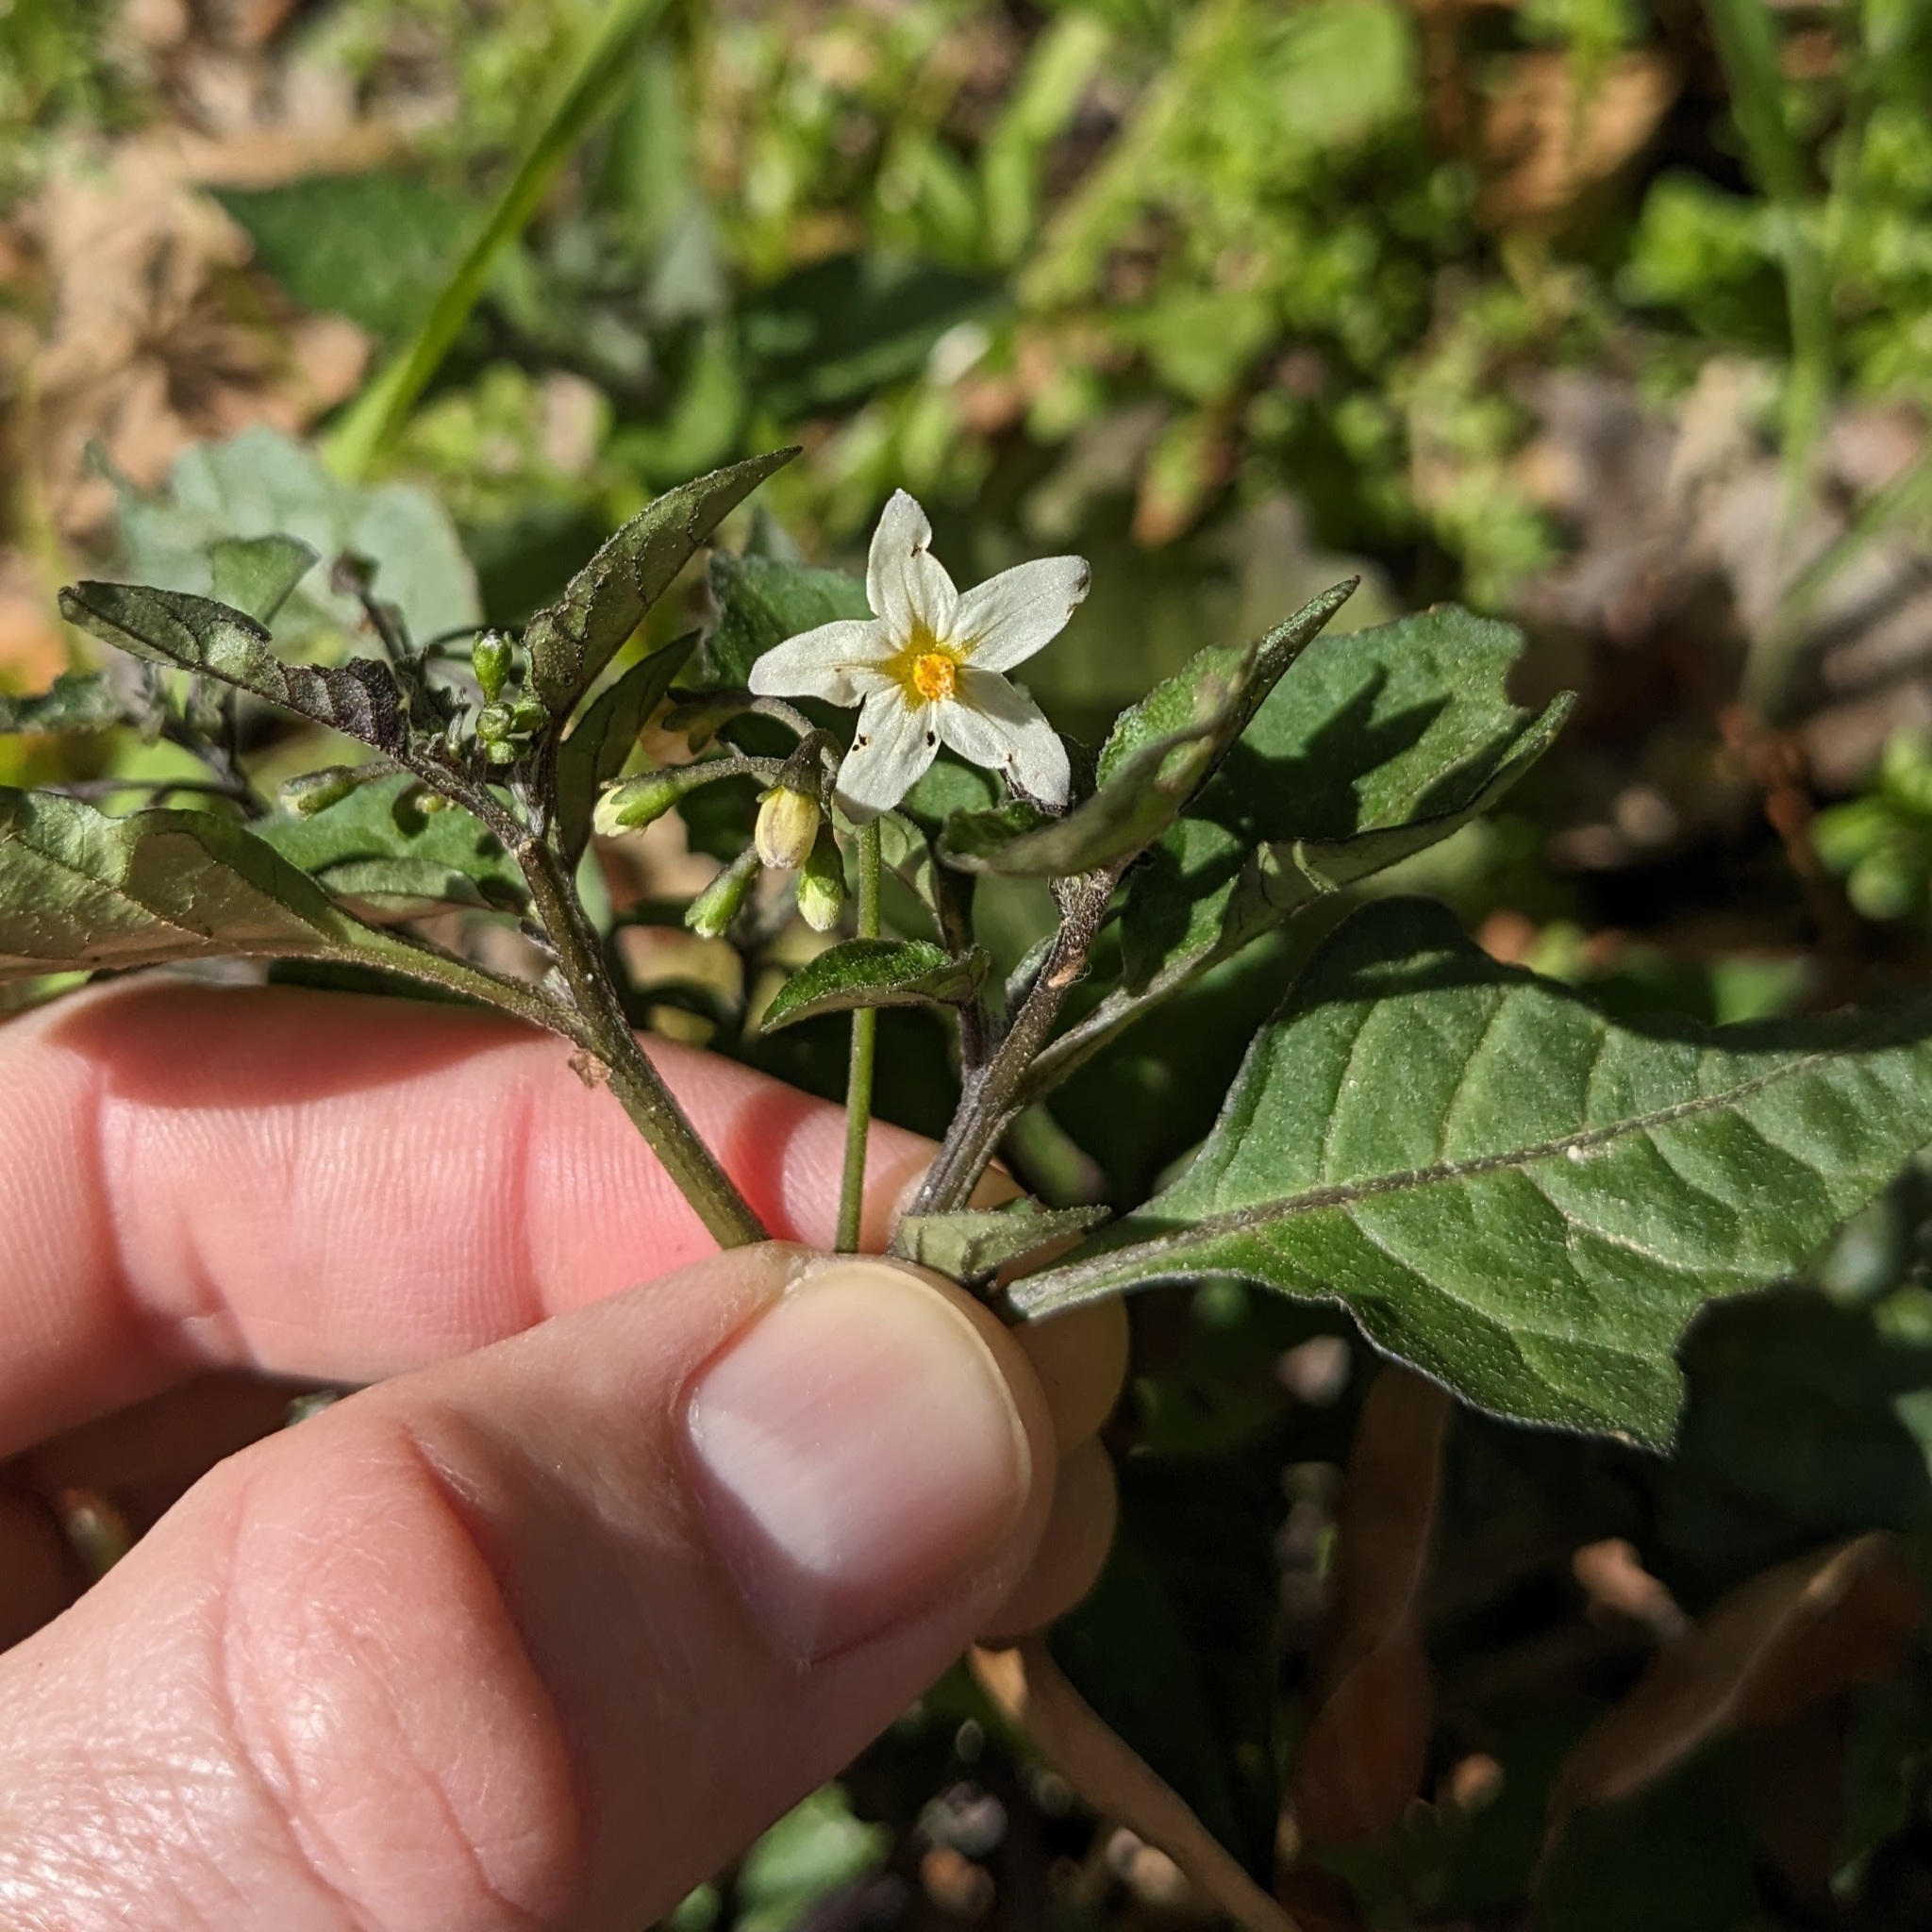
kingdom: Plantae
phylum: Tracheophyta
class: Magnoliopsida
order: Solanales
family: Solanaceae
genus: Solanum
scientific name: Solanum nigrum
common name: Black nightshade
